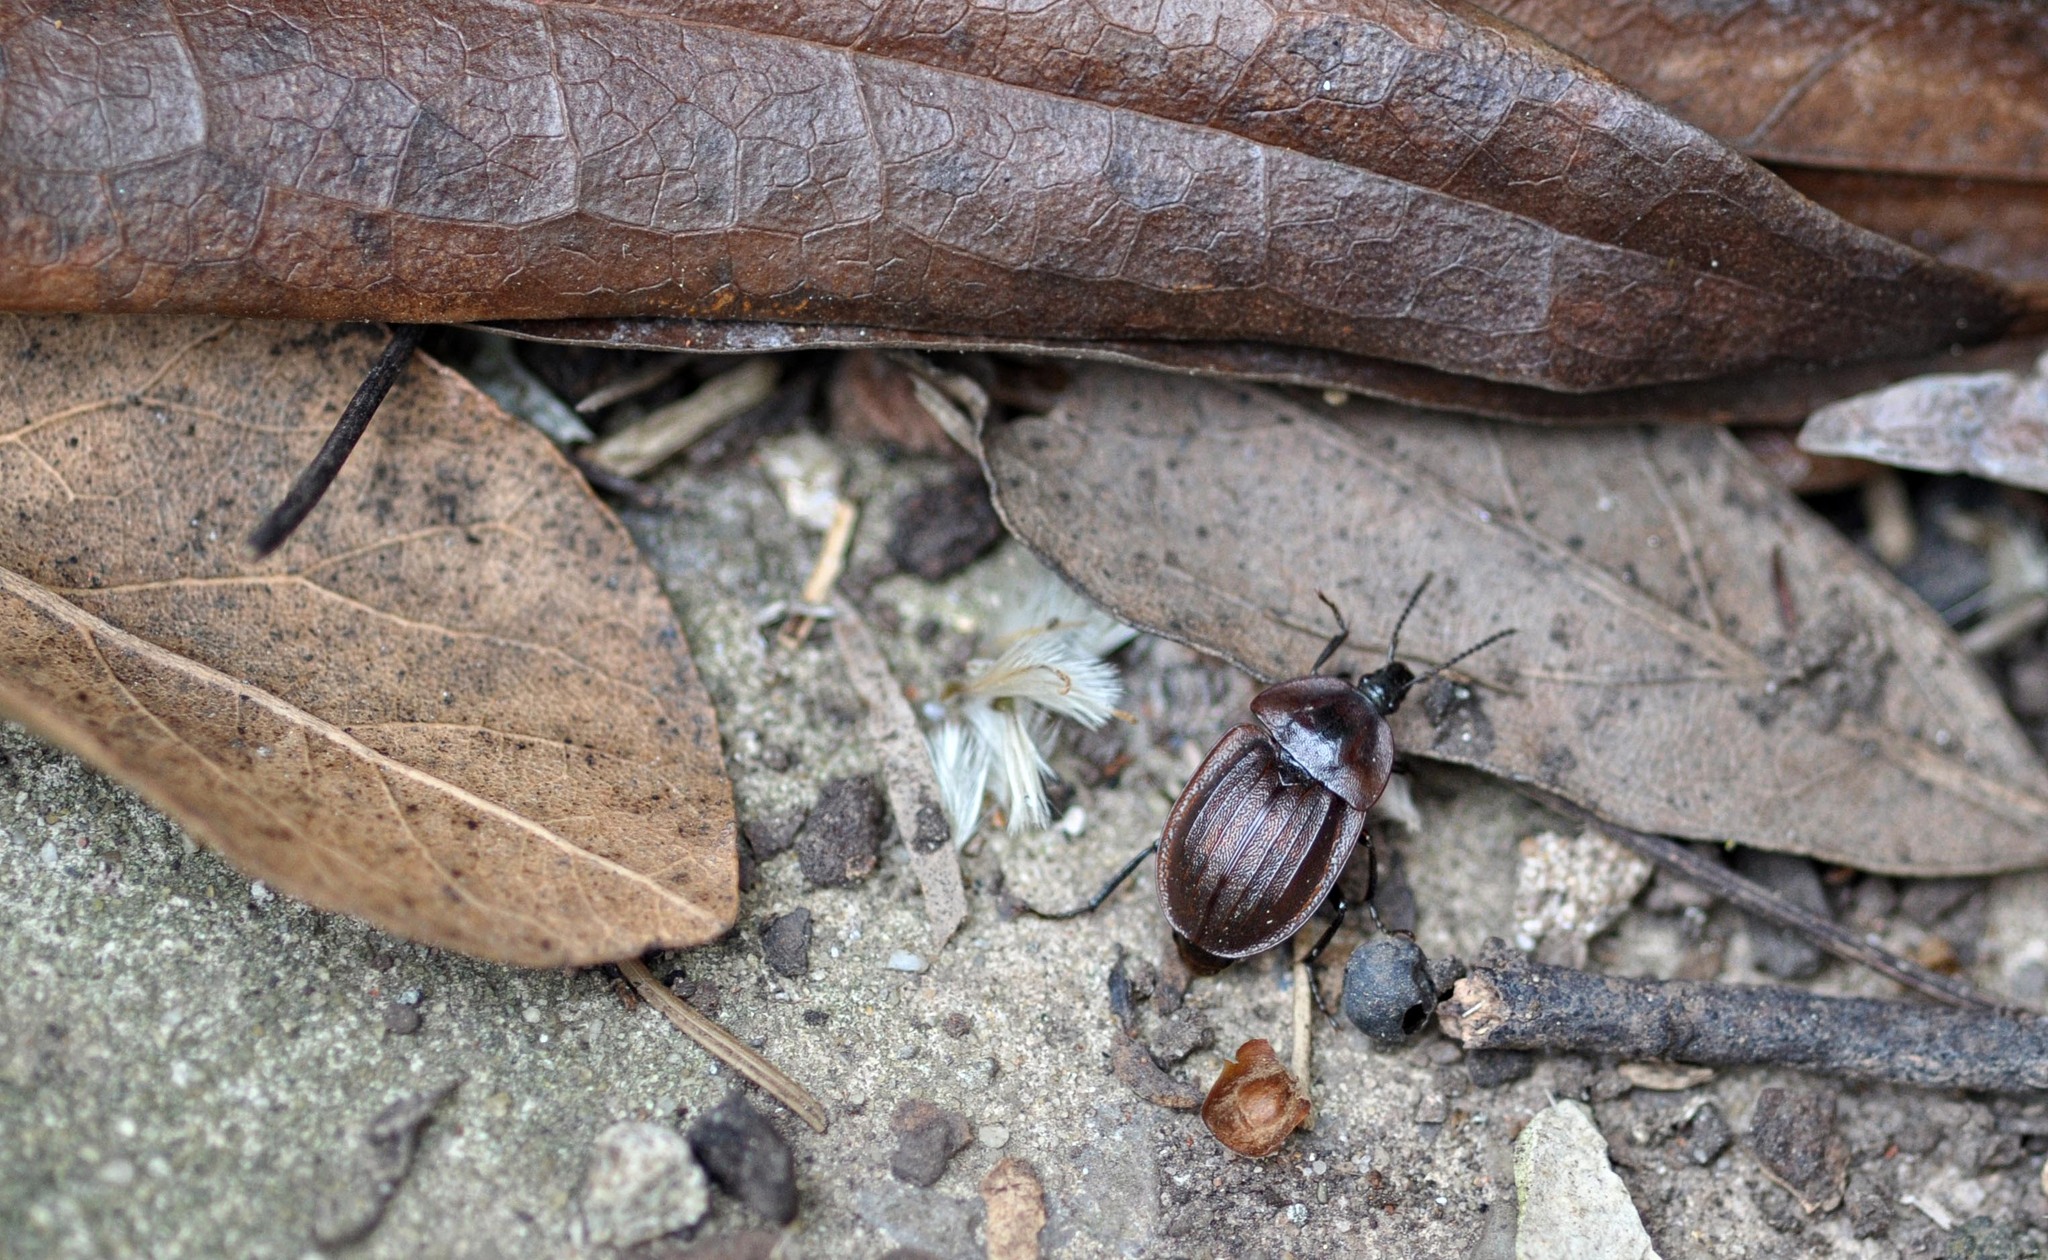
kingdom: Animalia
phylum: Arthropoda
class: Insecta
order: Coleoptera
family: Staphylinidae
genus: Silpha
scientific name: Silpha atrata
